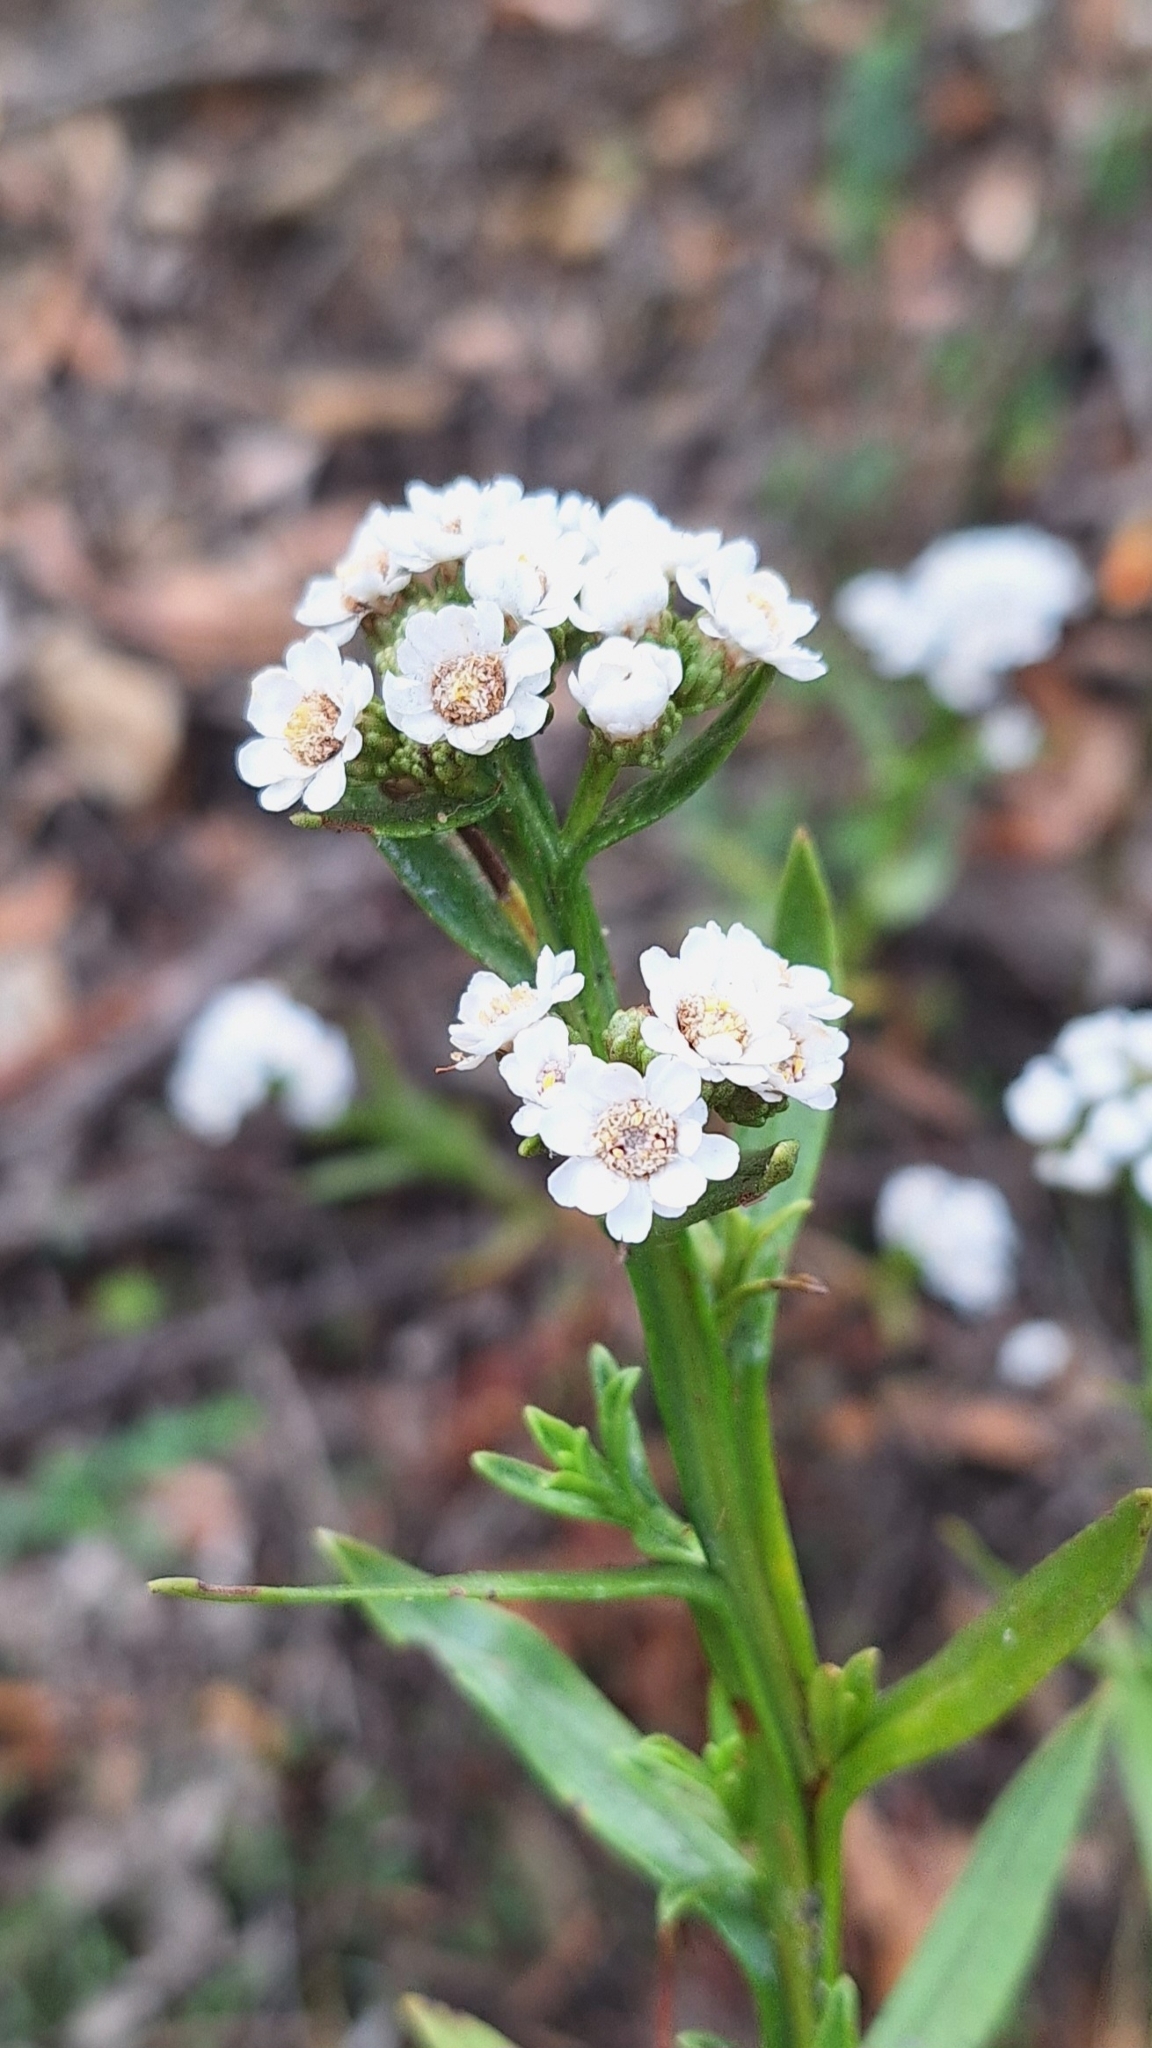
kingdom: Plantae
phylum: Tracheophyta
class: Magnoliopsida
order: Asterales
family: Asteraceae
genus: Ixodia
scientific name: Ixodia achillaeoides
